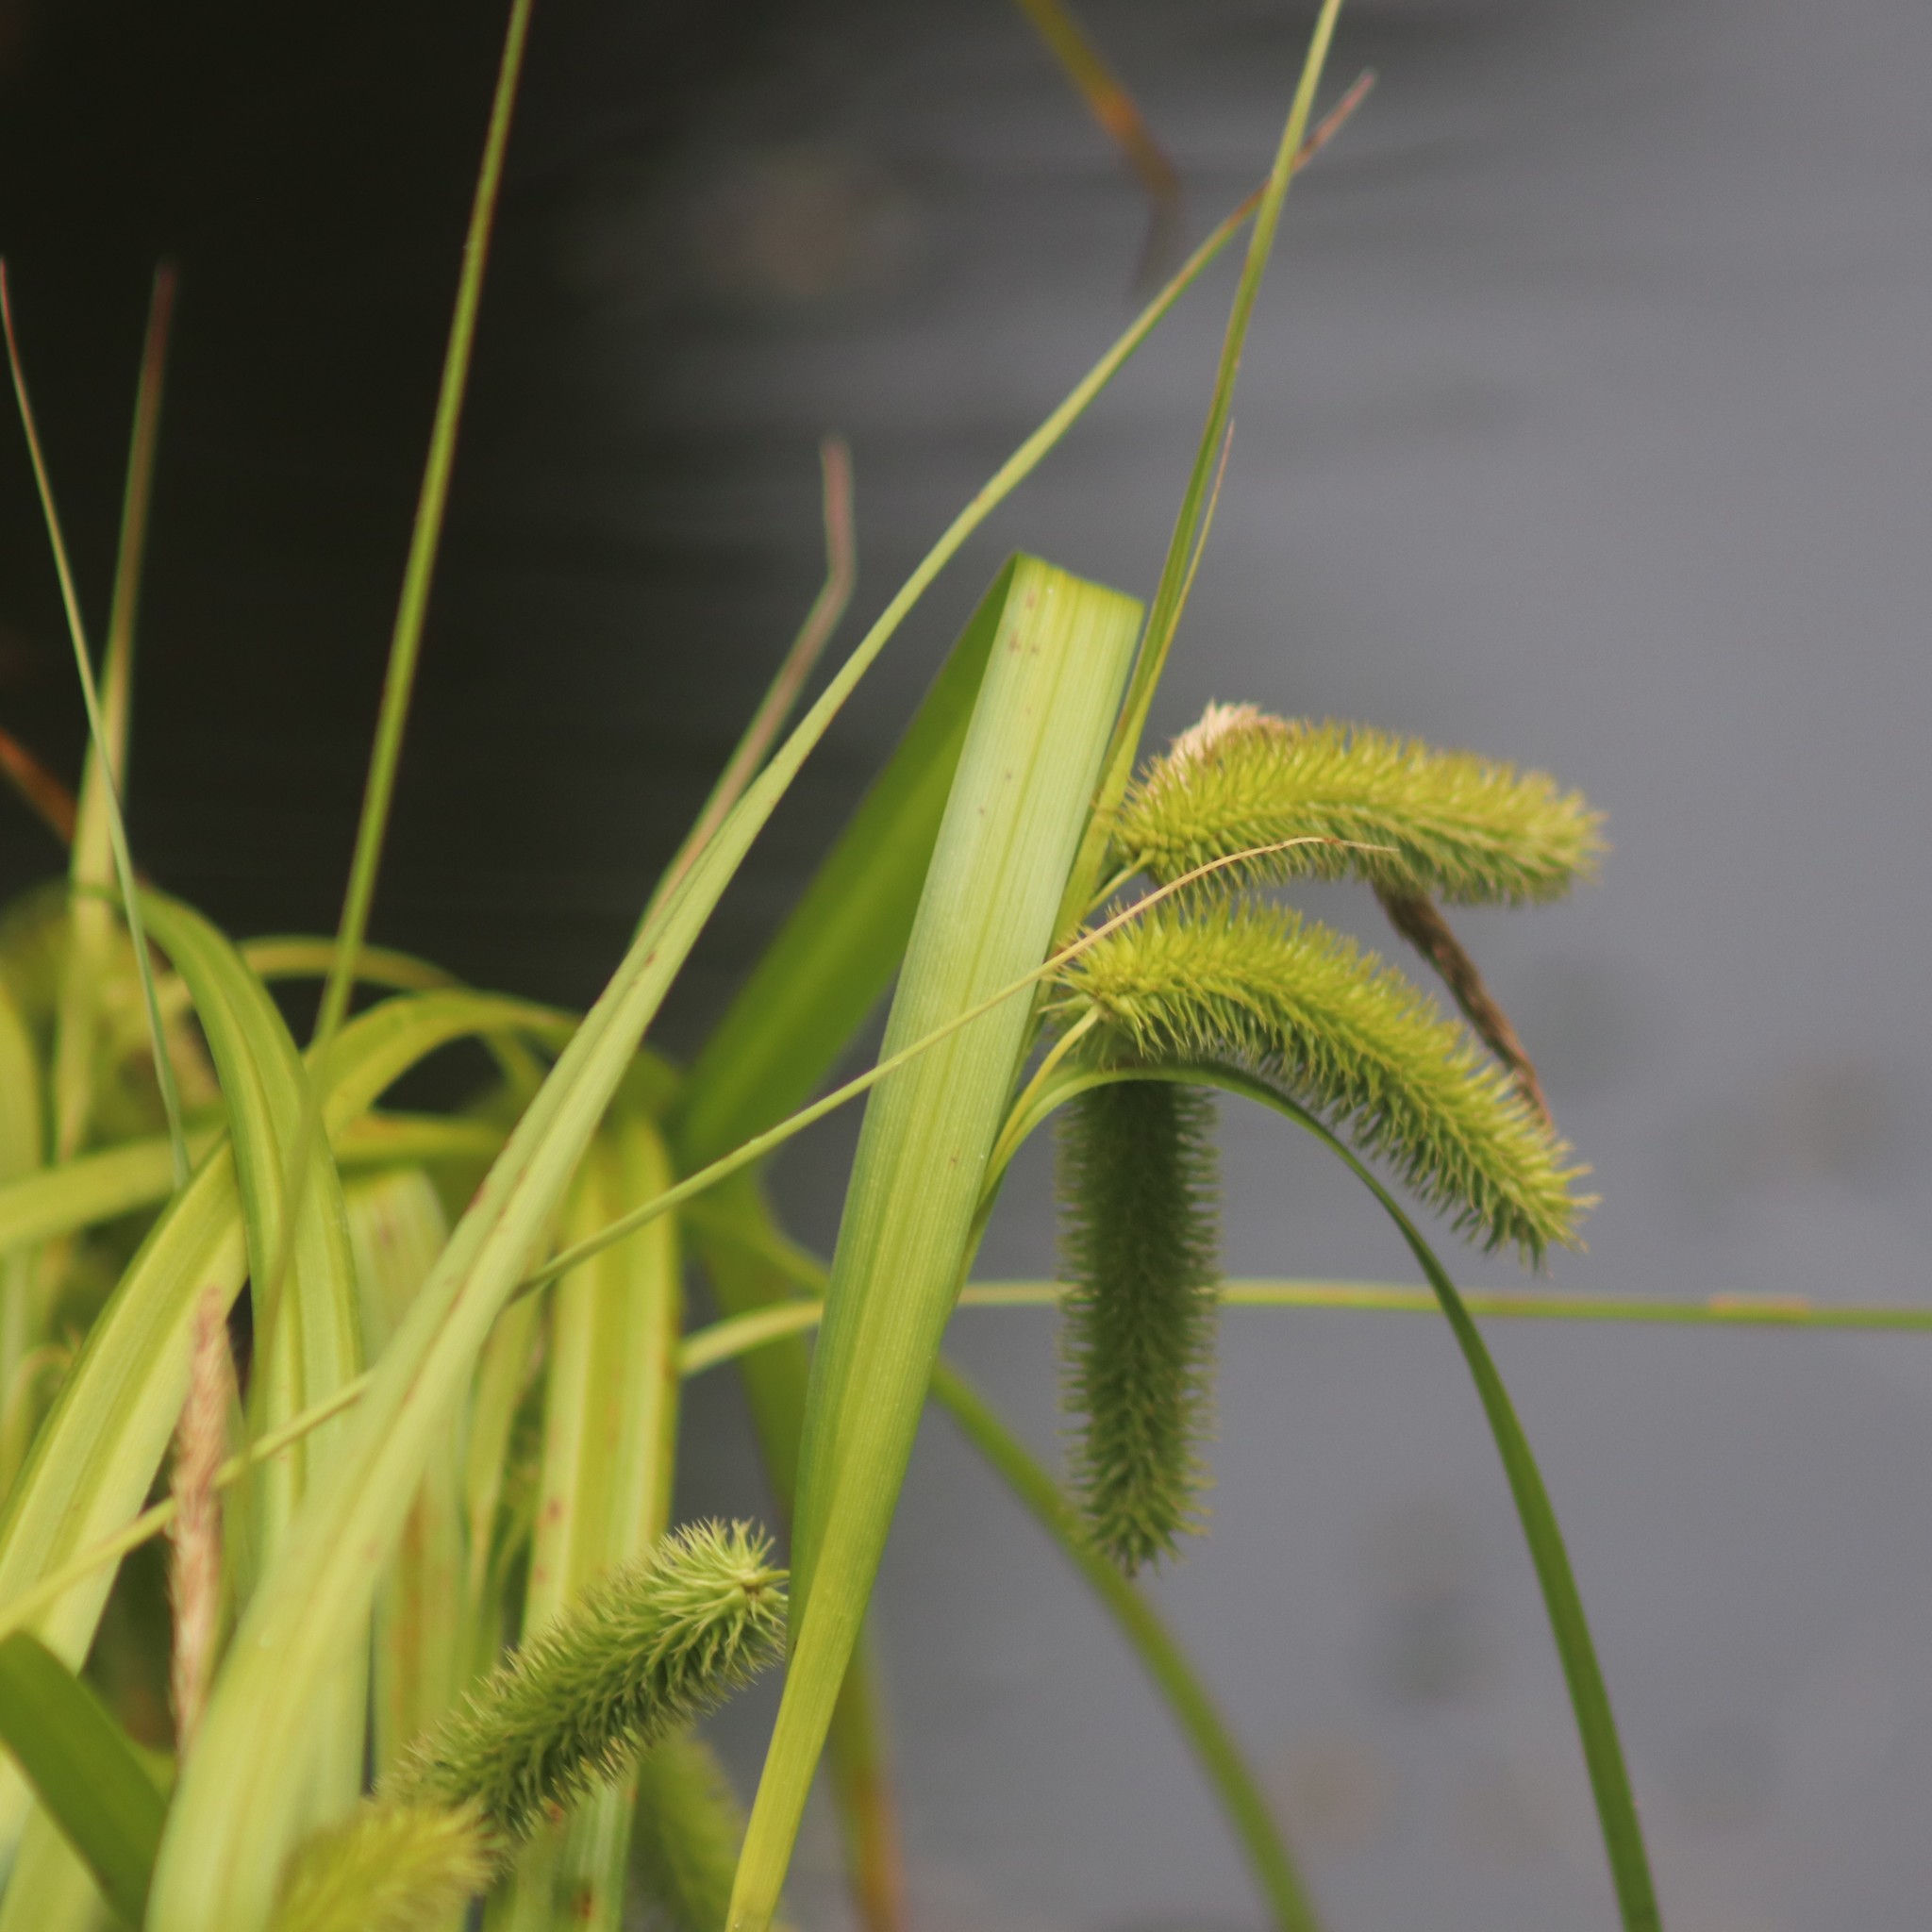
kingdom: Plantae
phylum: Tracheophyta
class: Liliopsida
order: Poales
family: Cyperaceae
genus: Carex
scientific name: Carex comosa
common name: Bristly sedge
